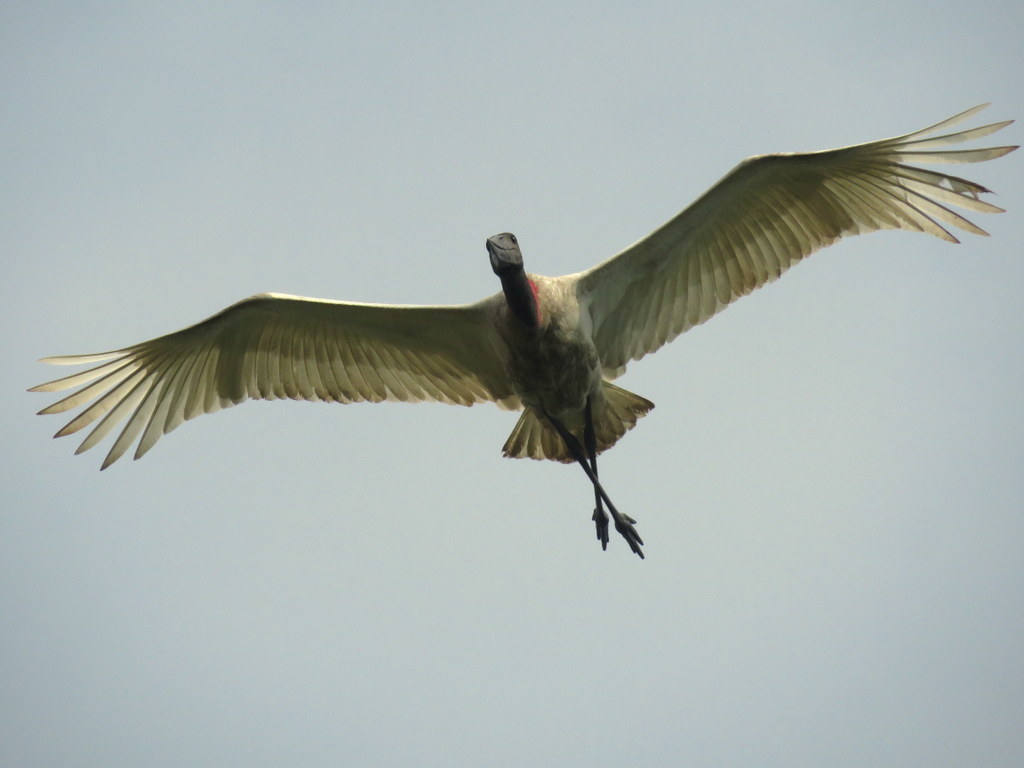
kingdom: Animalia
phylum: Chordata
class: Aves
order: Ciconiiformes
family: Ciconiidae
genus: Jabiru
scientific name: Jabiru mycteria
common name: Jabiru
